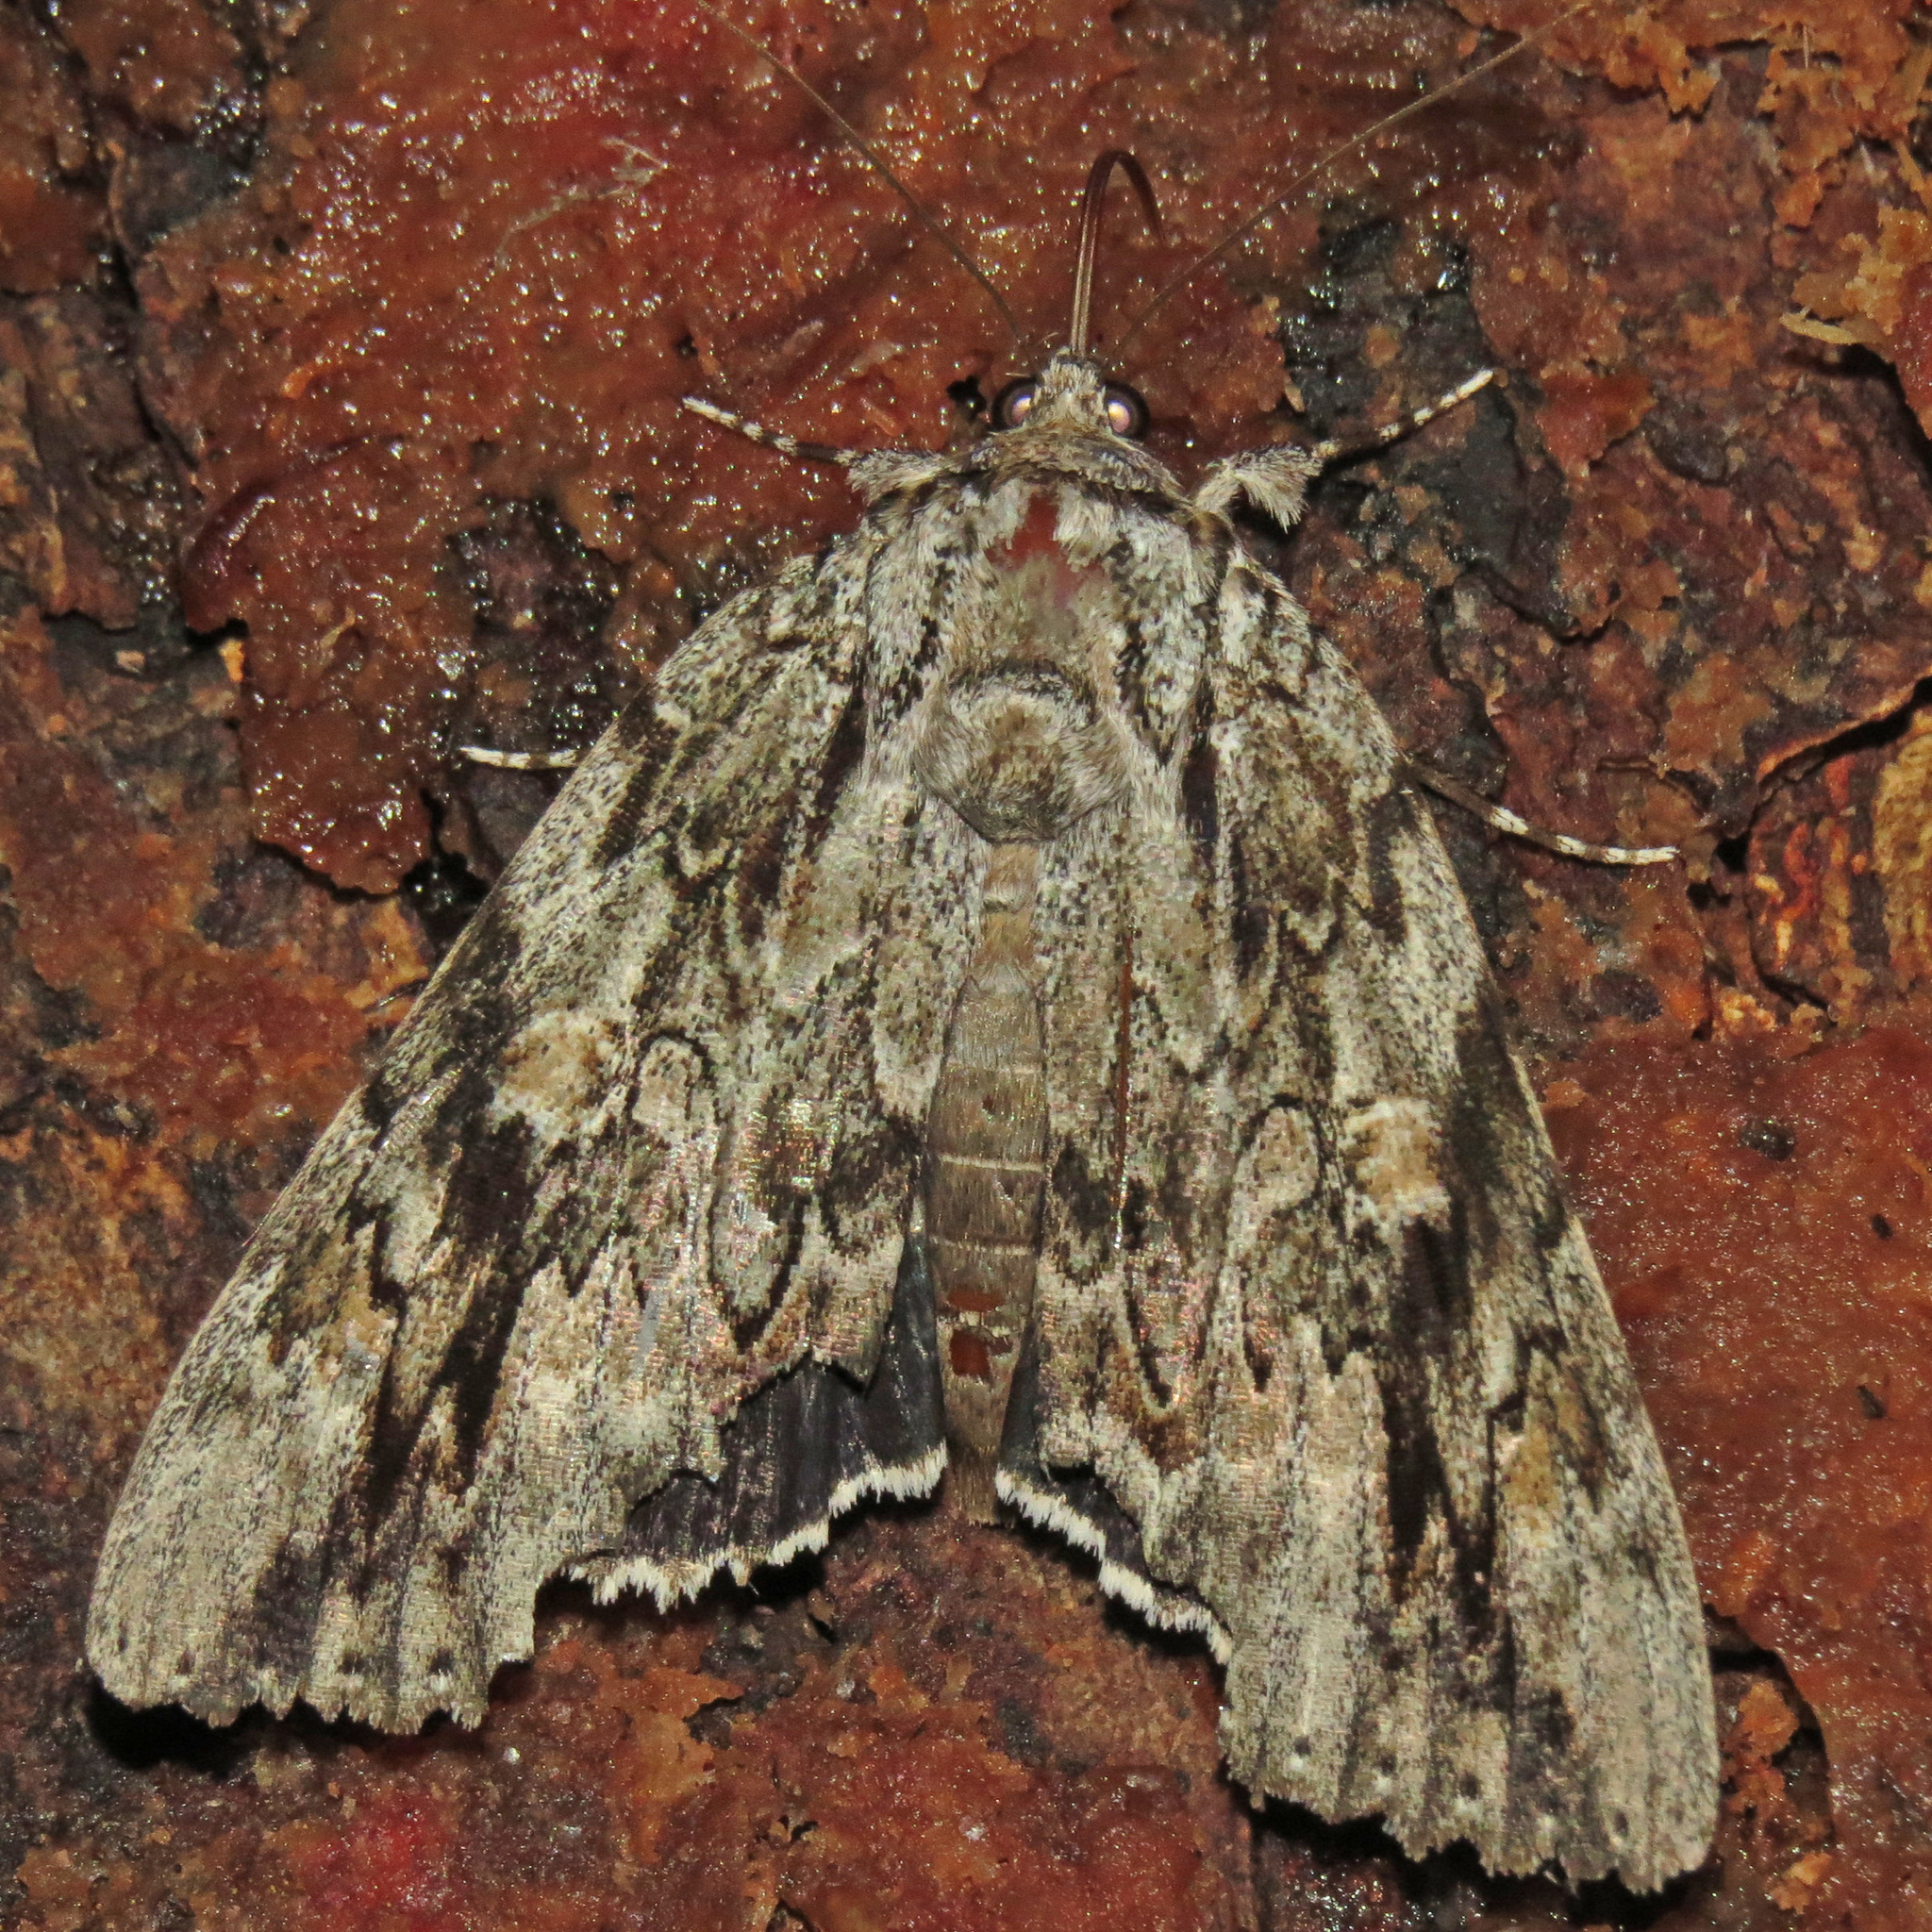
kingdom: Animalia
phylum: Arthropoda
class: Insecta
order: Lepidoptera
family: Erebidae
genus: Catocala
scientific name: Catocala maestosa
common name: Sad underwing
